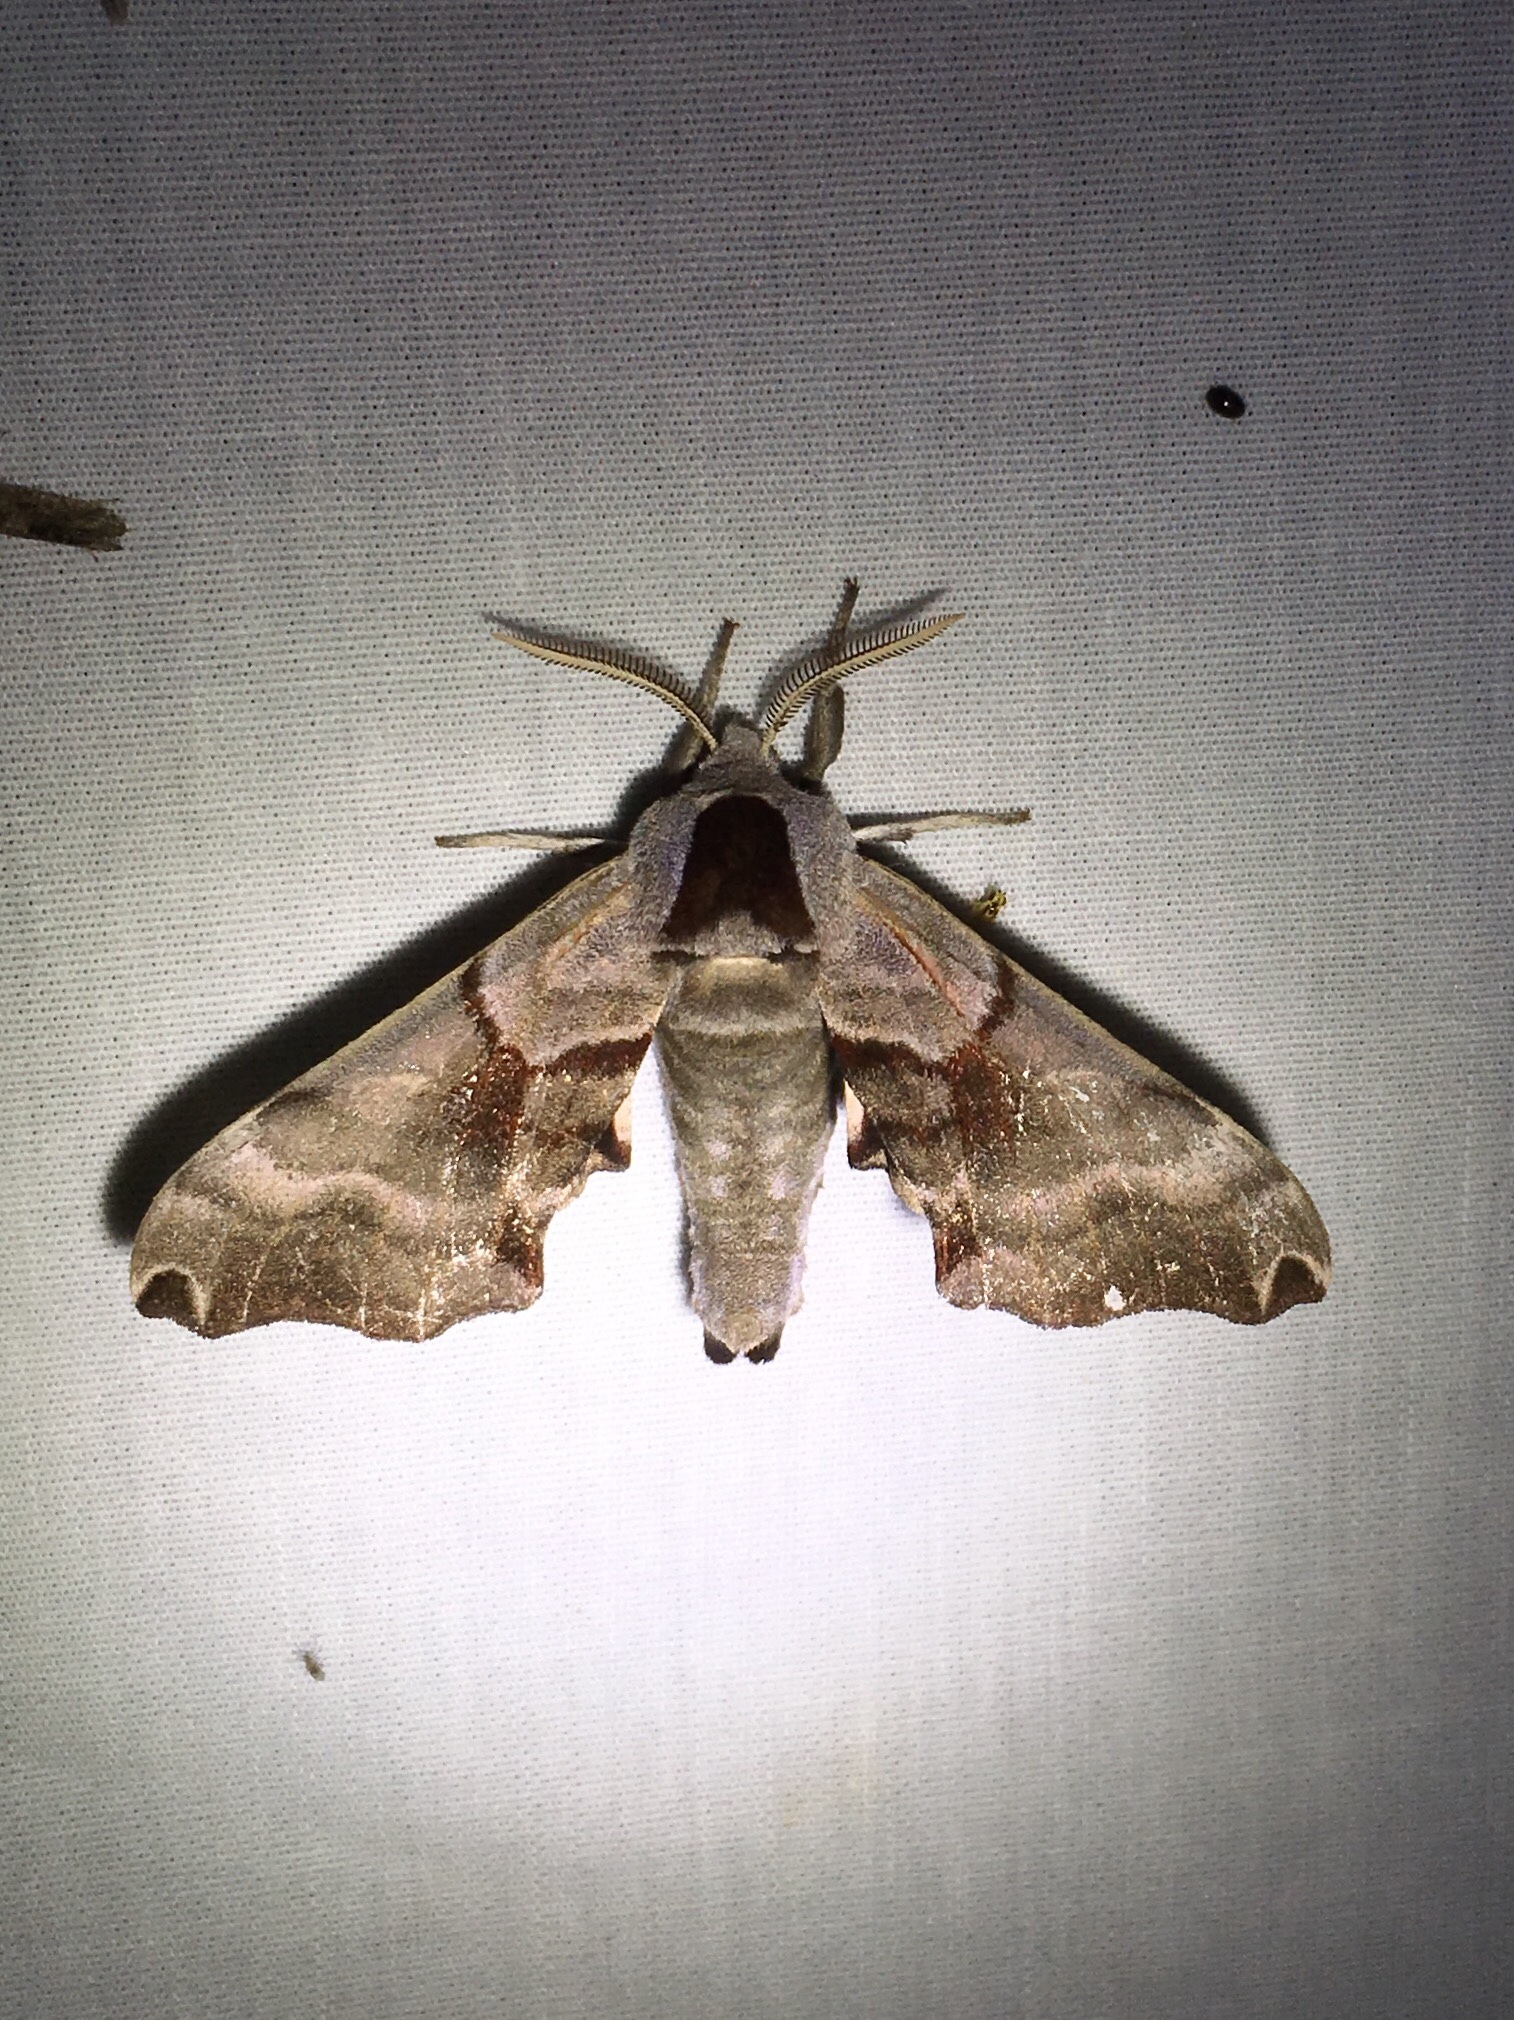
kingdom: Animalia
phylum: Arthropoda
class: Insecta
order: Lepidoptera
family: Sphingidae
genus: Smerinthus
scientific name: Smerinthus jamaicensis
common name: Twin spotted sphinx
